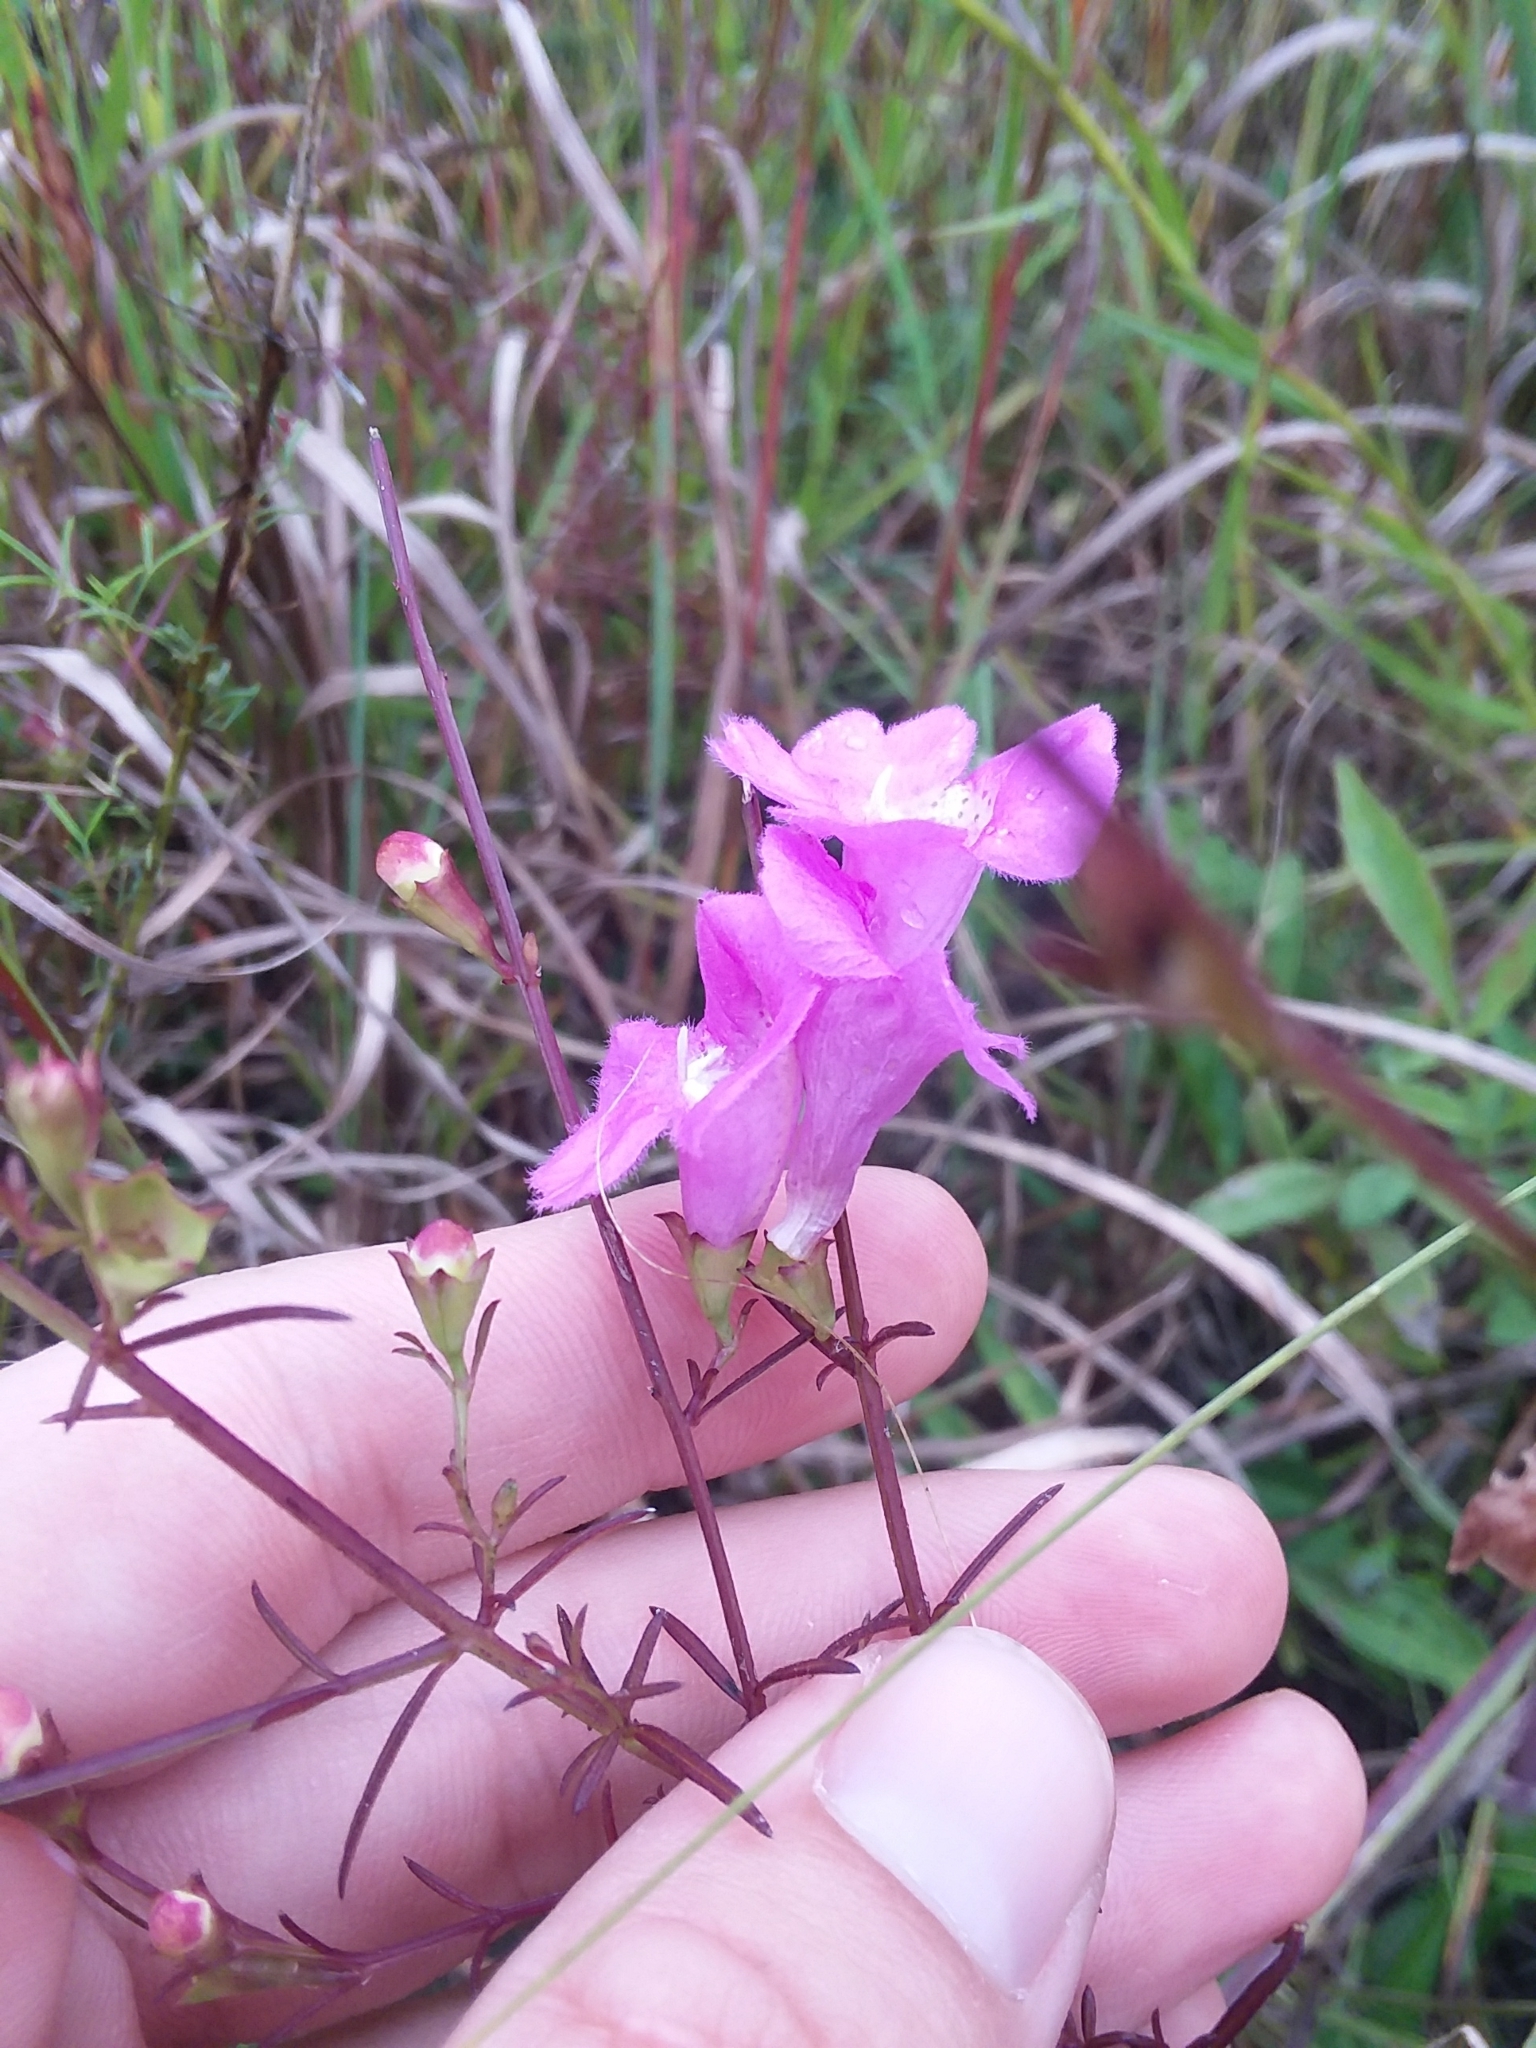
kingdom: Plantae
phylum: Tracheophyta
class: Magnoliopsida
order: Lamiales
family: Orobanchaceae
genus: Agalinis
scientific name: Agalinis purpurea
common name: Purple false foxglove
